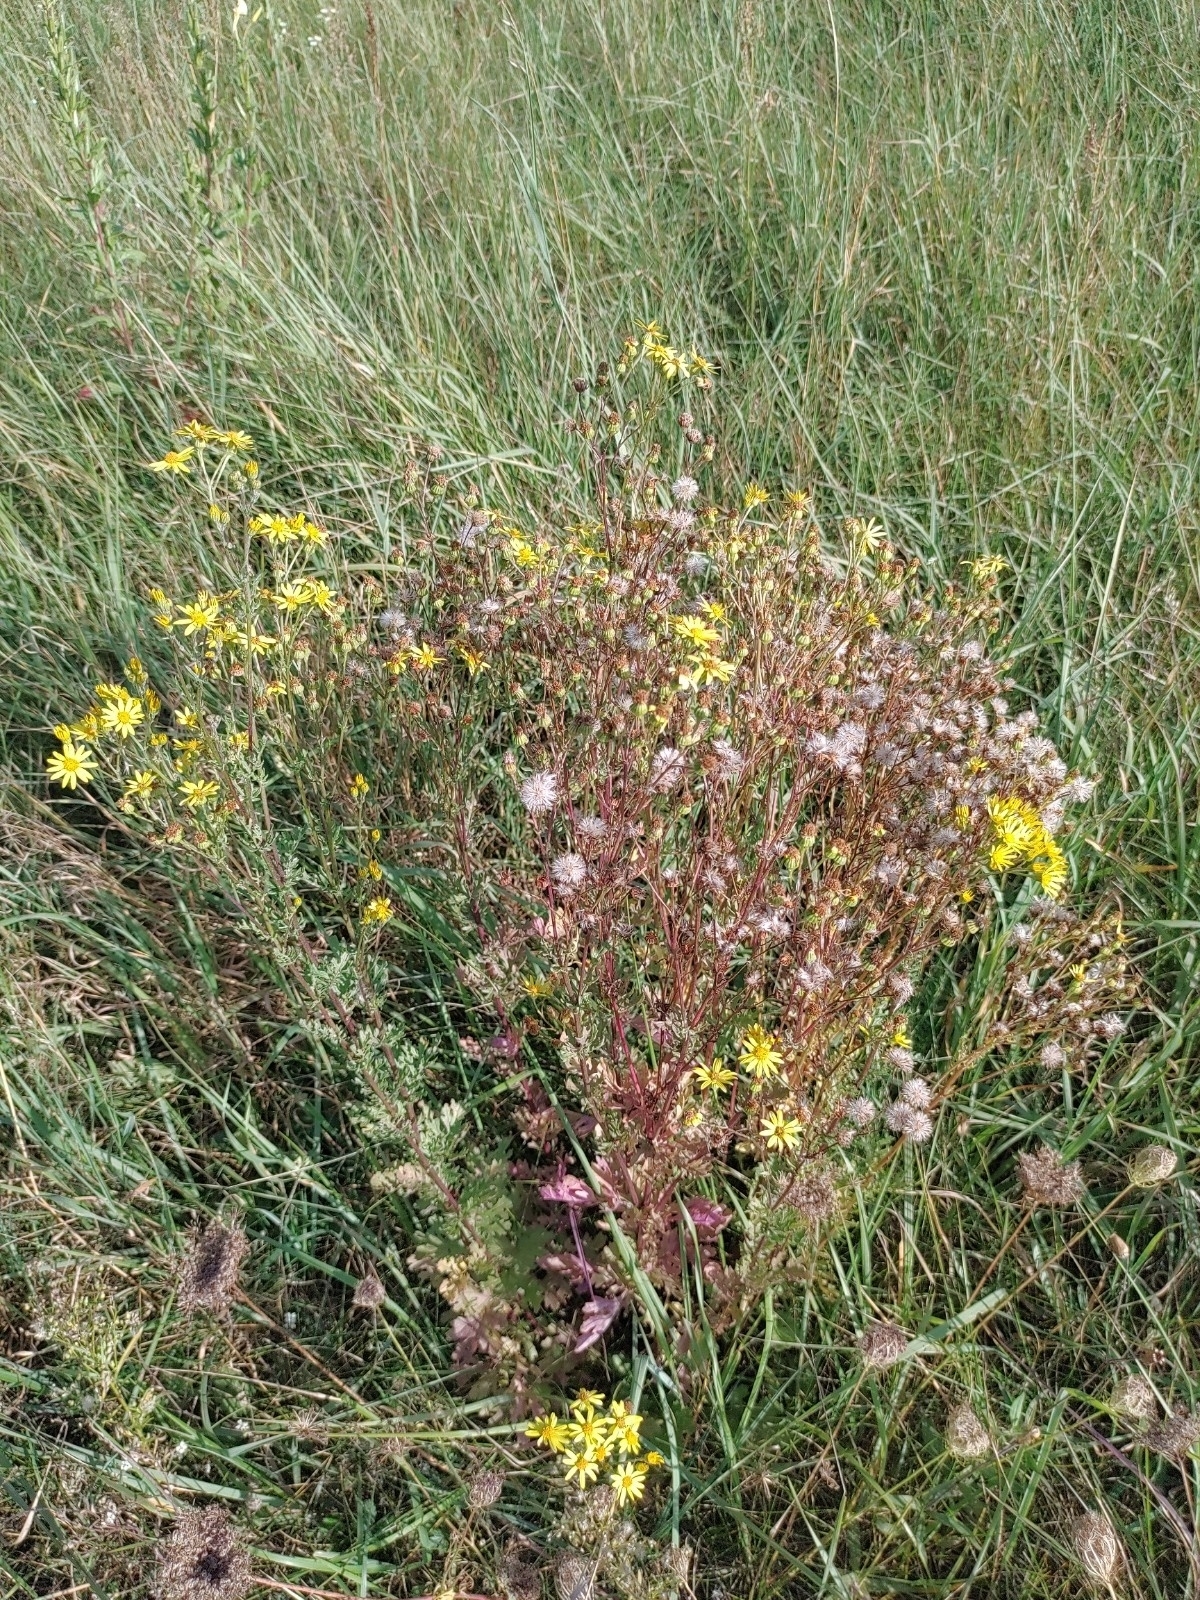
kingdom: Plantae
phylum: Tracheophyta
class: Magnoliopsida
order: Asterales
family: Asteraceae
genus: Jacobaea
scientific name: Jacobaea vulgaris
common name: Stinking willie
